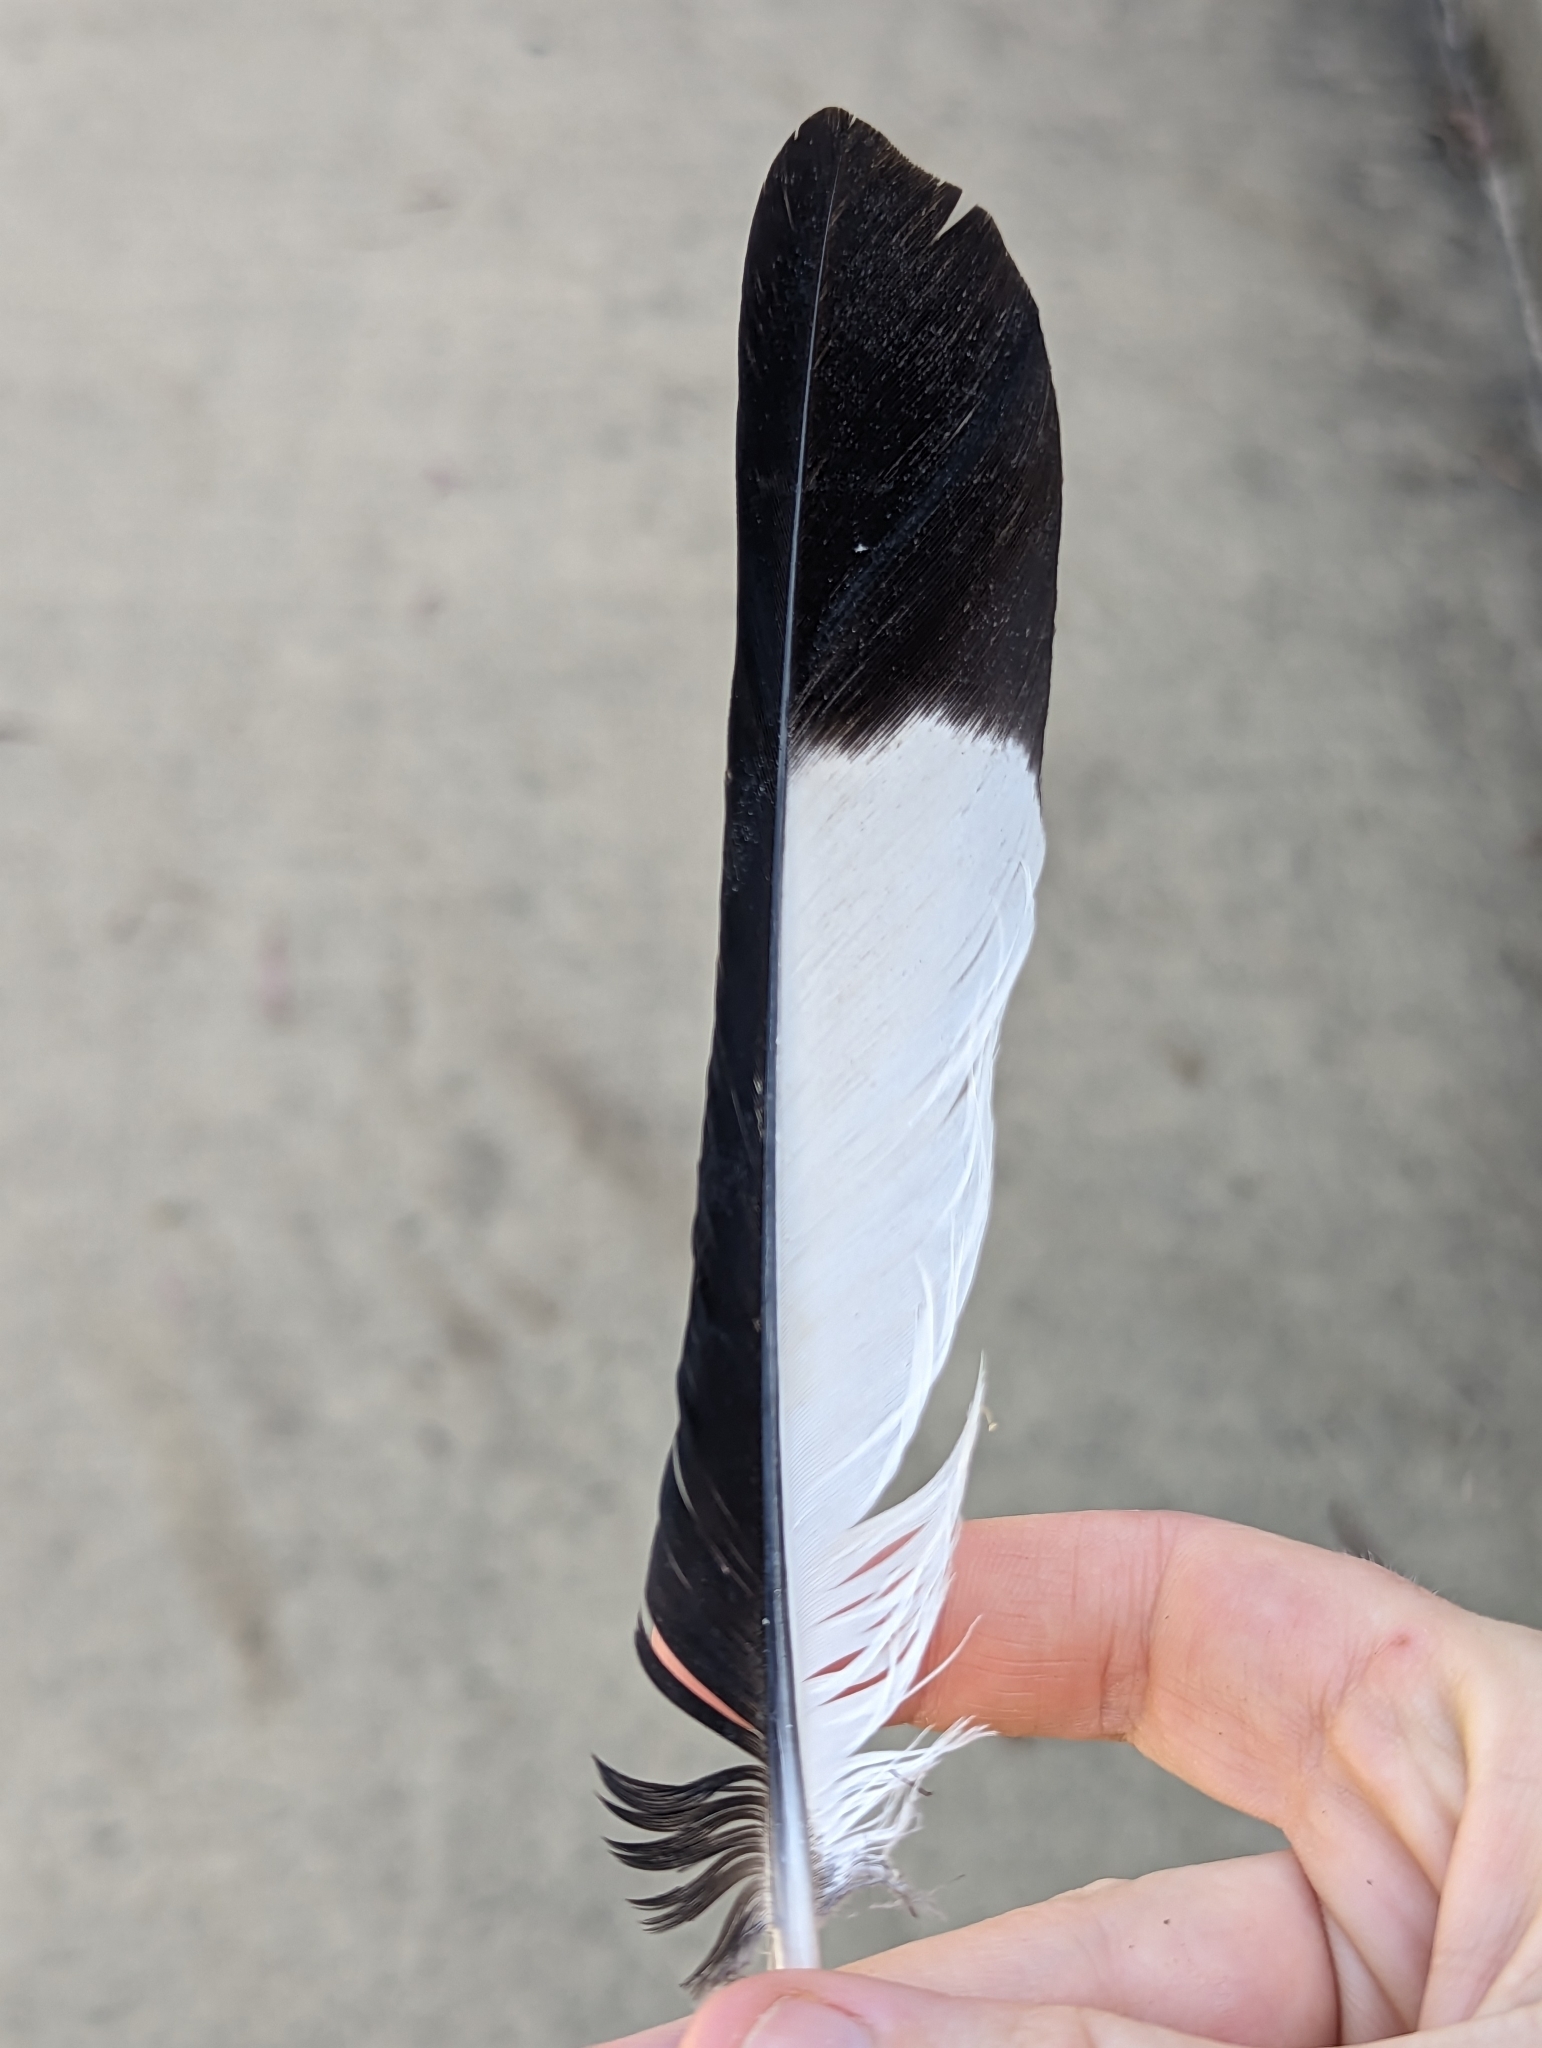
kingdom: Animalia
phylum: Chordata
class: Aves
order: Passeriformes
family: Cracticidae
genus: Gymnorhina
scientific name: Gymnorhina tibicen
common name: Australian magpie
